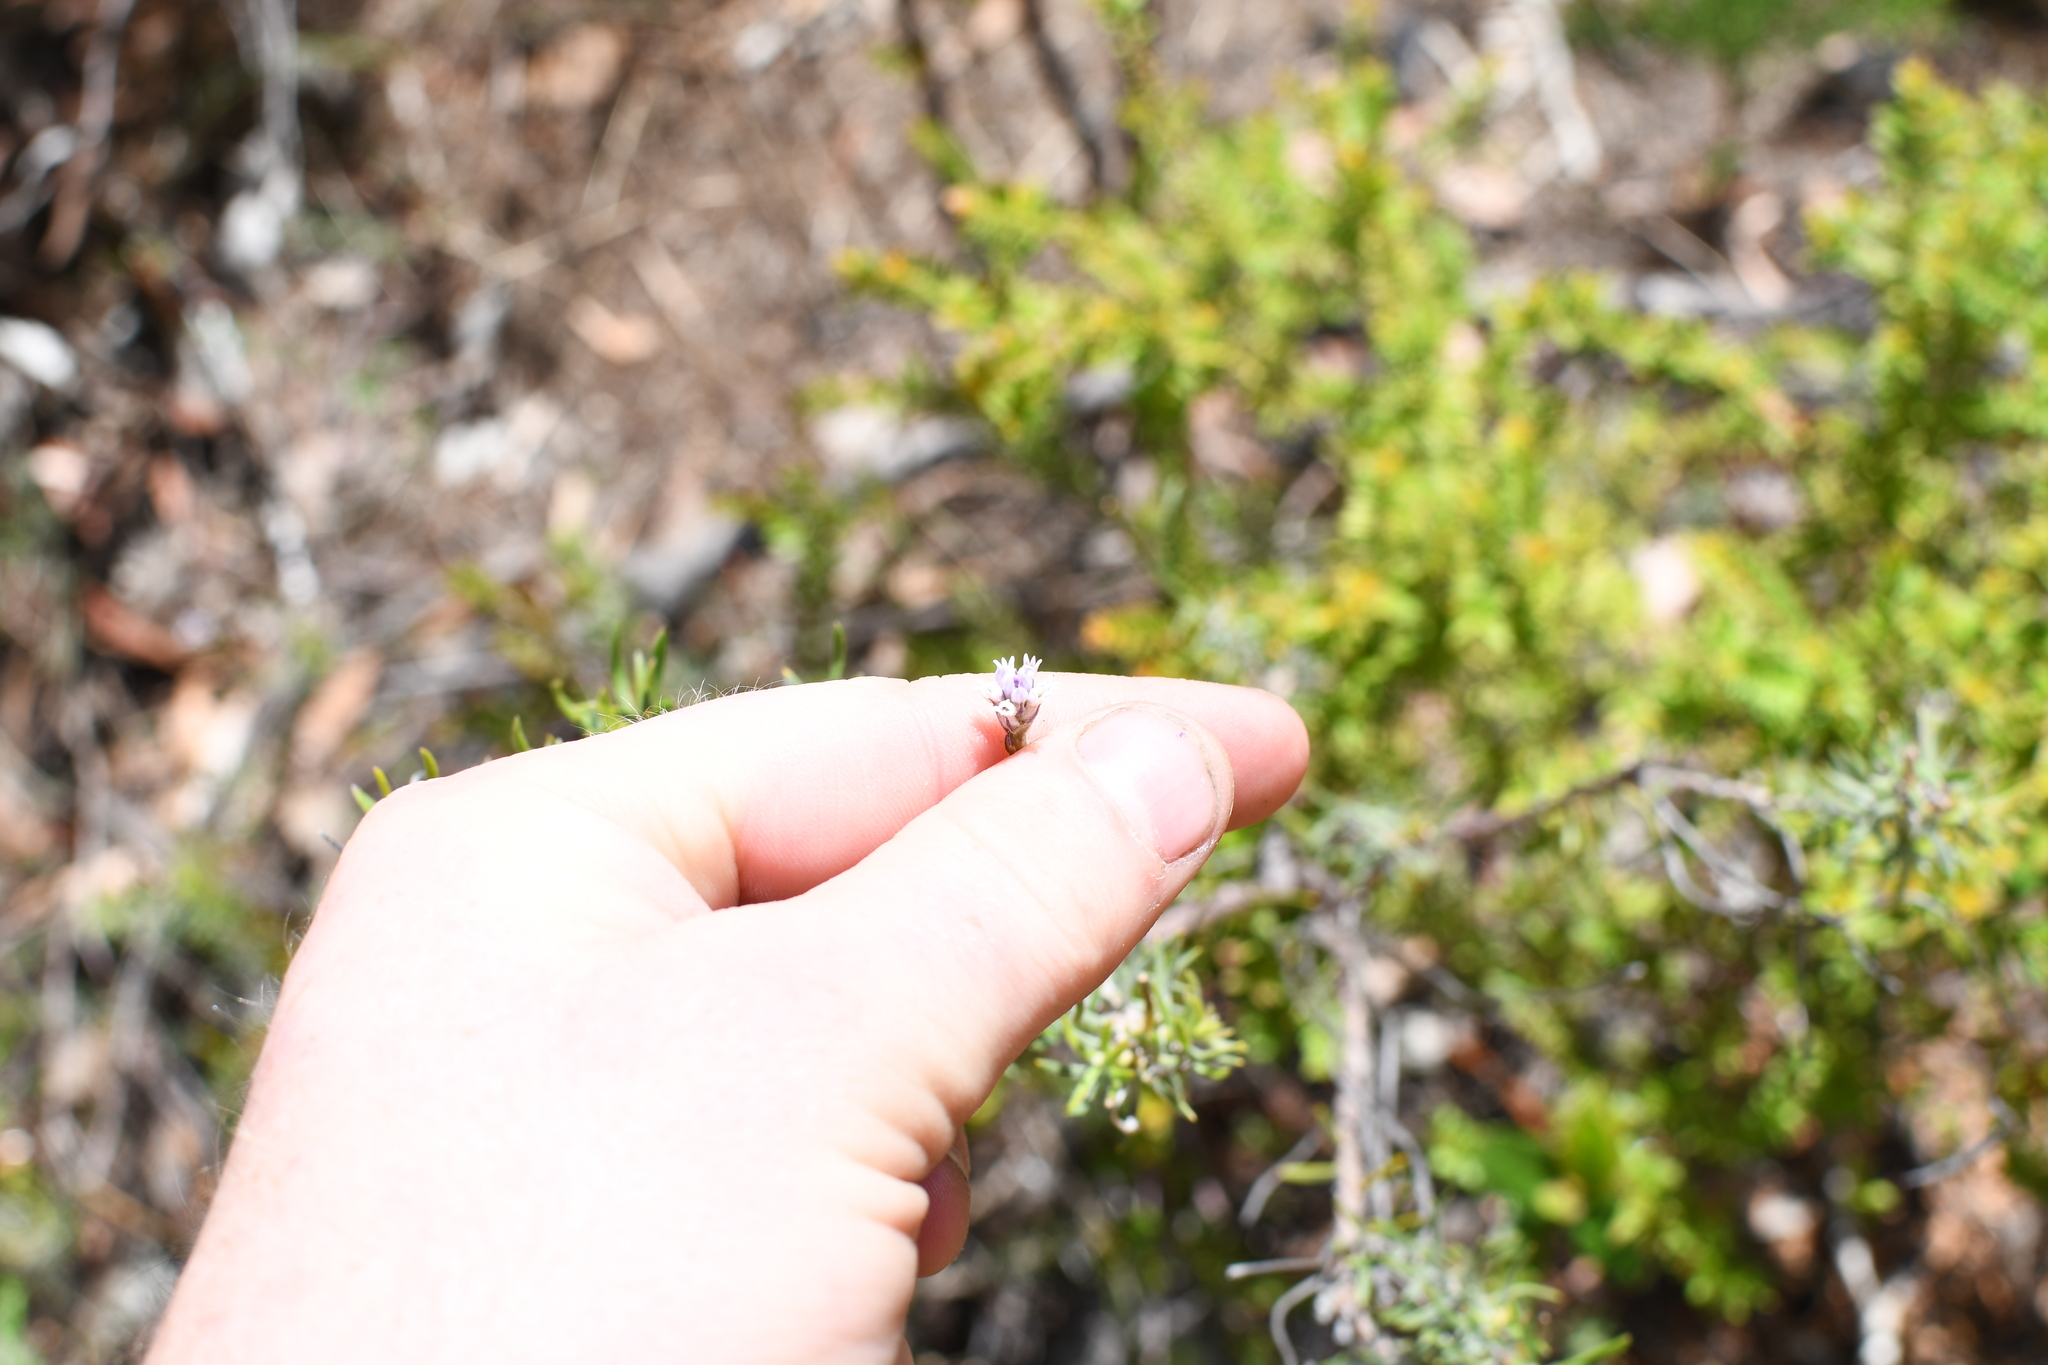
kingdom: Plantae
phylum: Tracheophyta
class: Magnoliopsida
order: Proteales
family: Proteaceae
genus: Conospermum
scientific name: Conospermum patens
